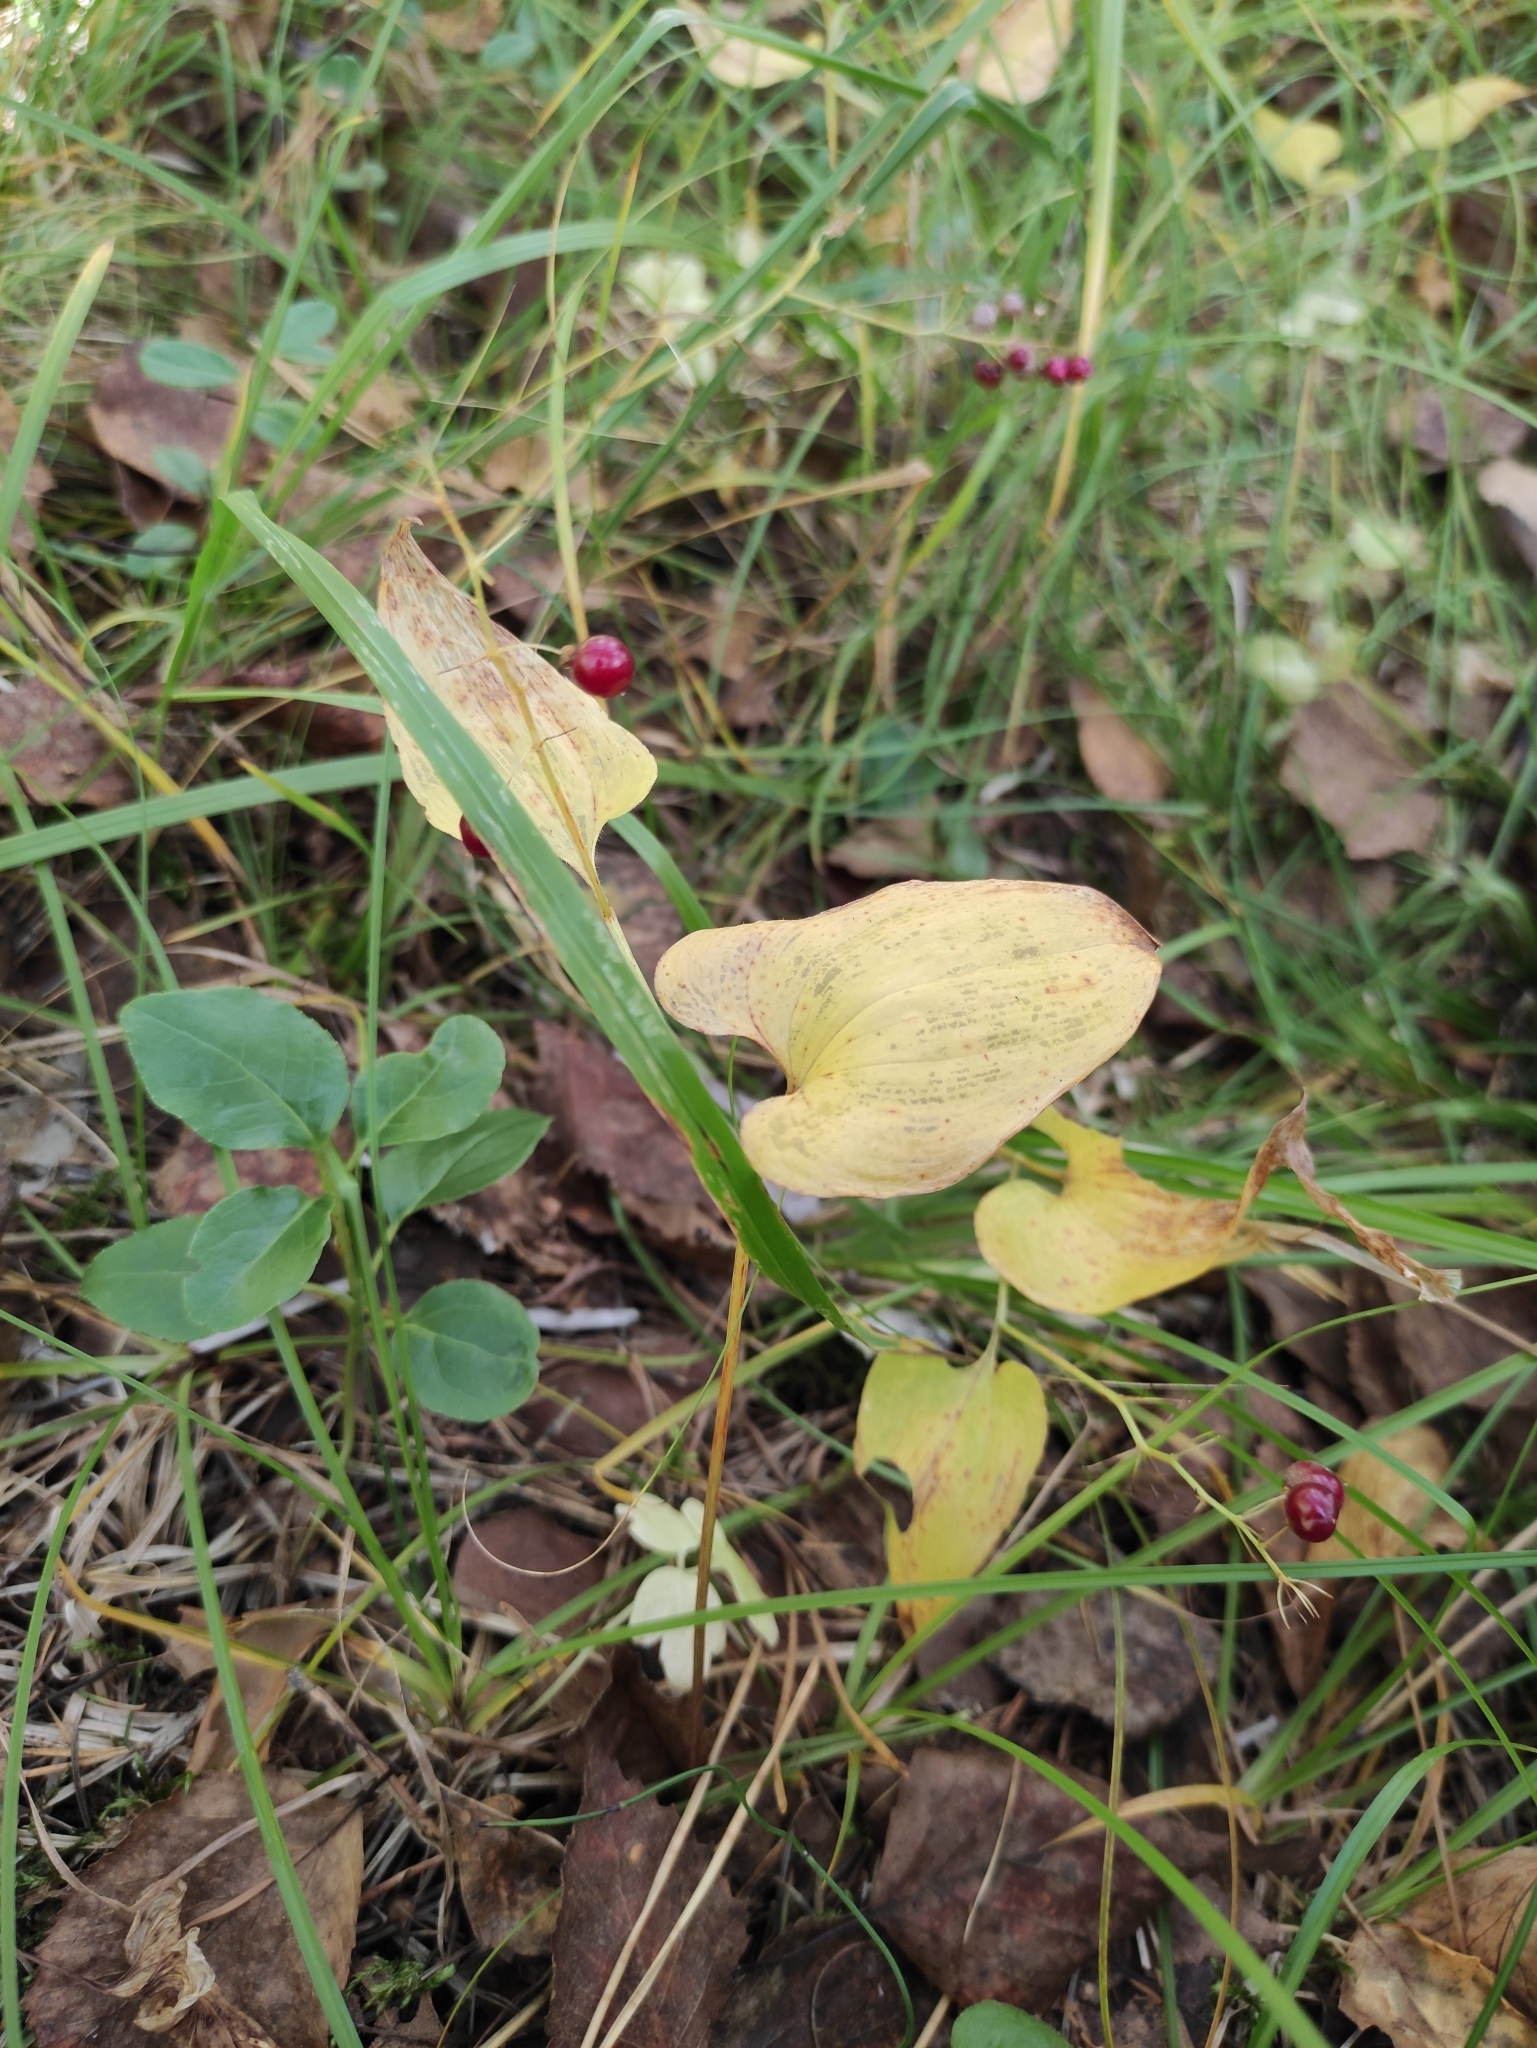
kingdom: Plantae
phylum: Tracheophyta
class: Liliopsida
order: Asparagales
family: Asparagaceae
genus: Maianthemum
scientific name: Maianthemum bifolium
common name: May lily
